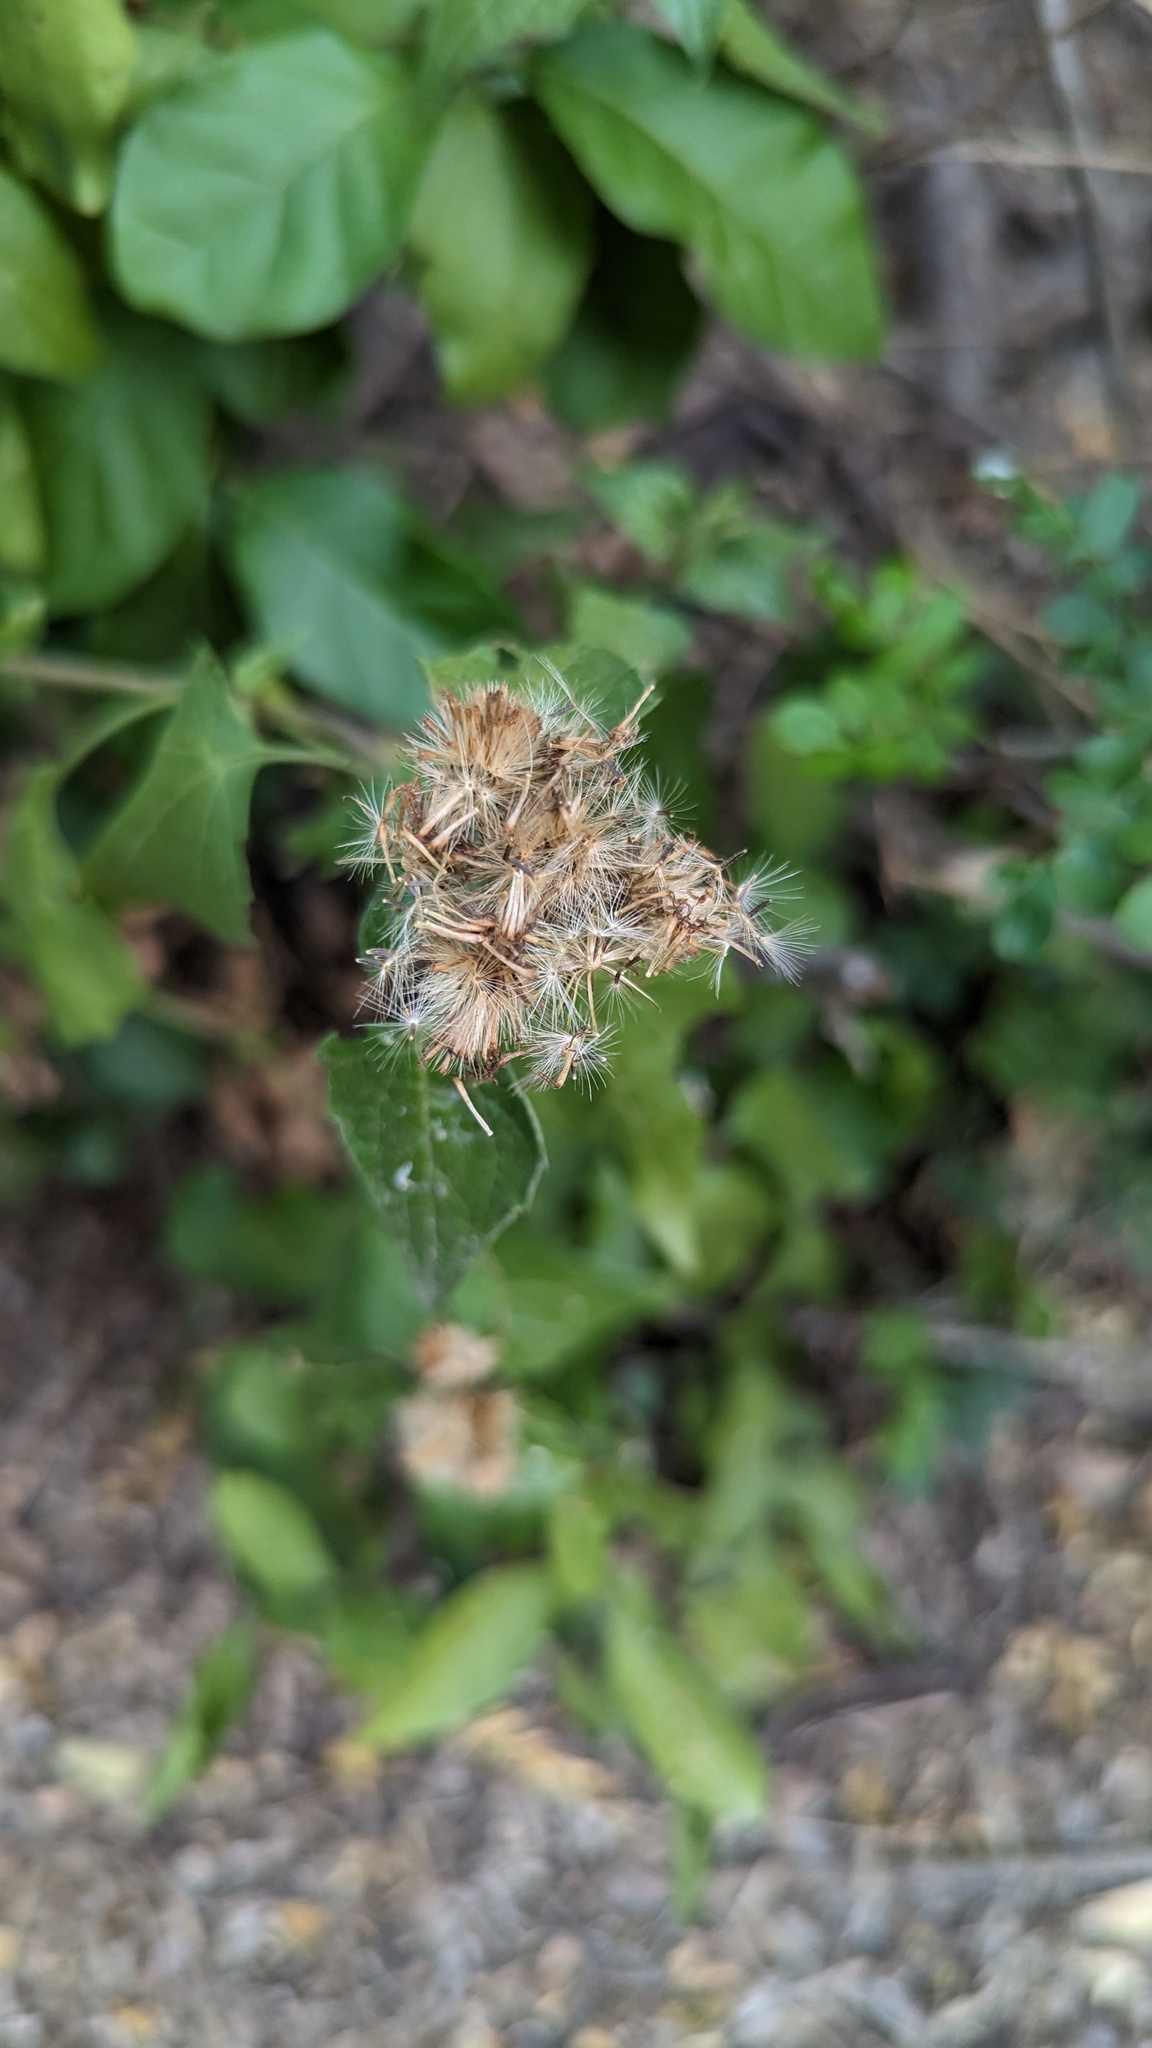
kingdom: Plantae
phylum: Tracheophyta
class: Magnoliopsida
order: Asterales
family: Asteraceae
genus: Tamaulipa
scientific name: Tamaulipa azurea
